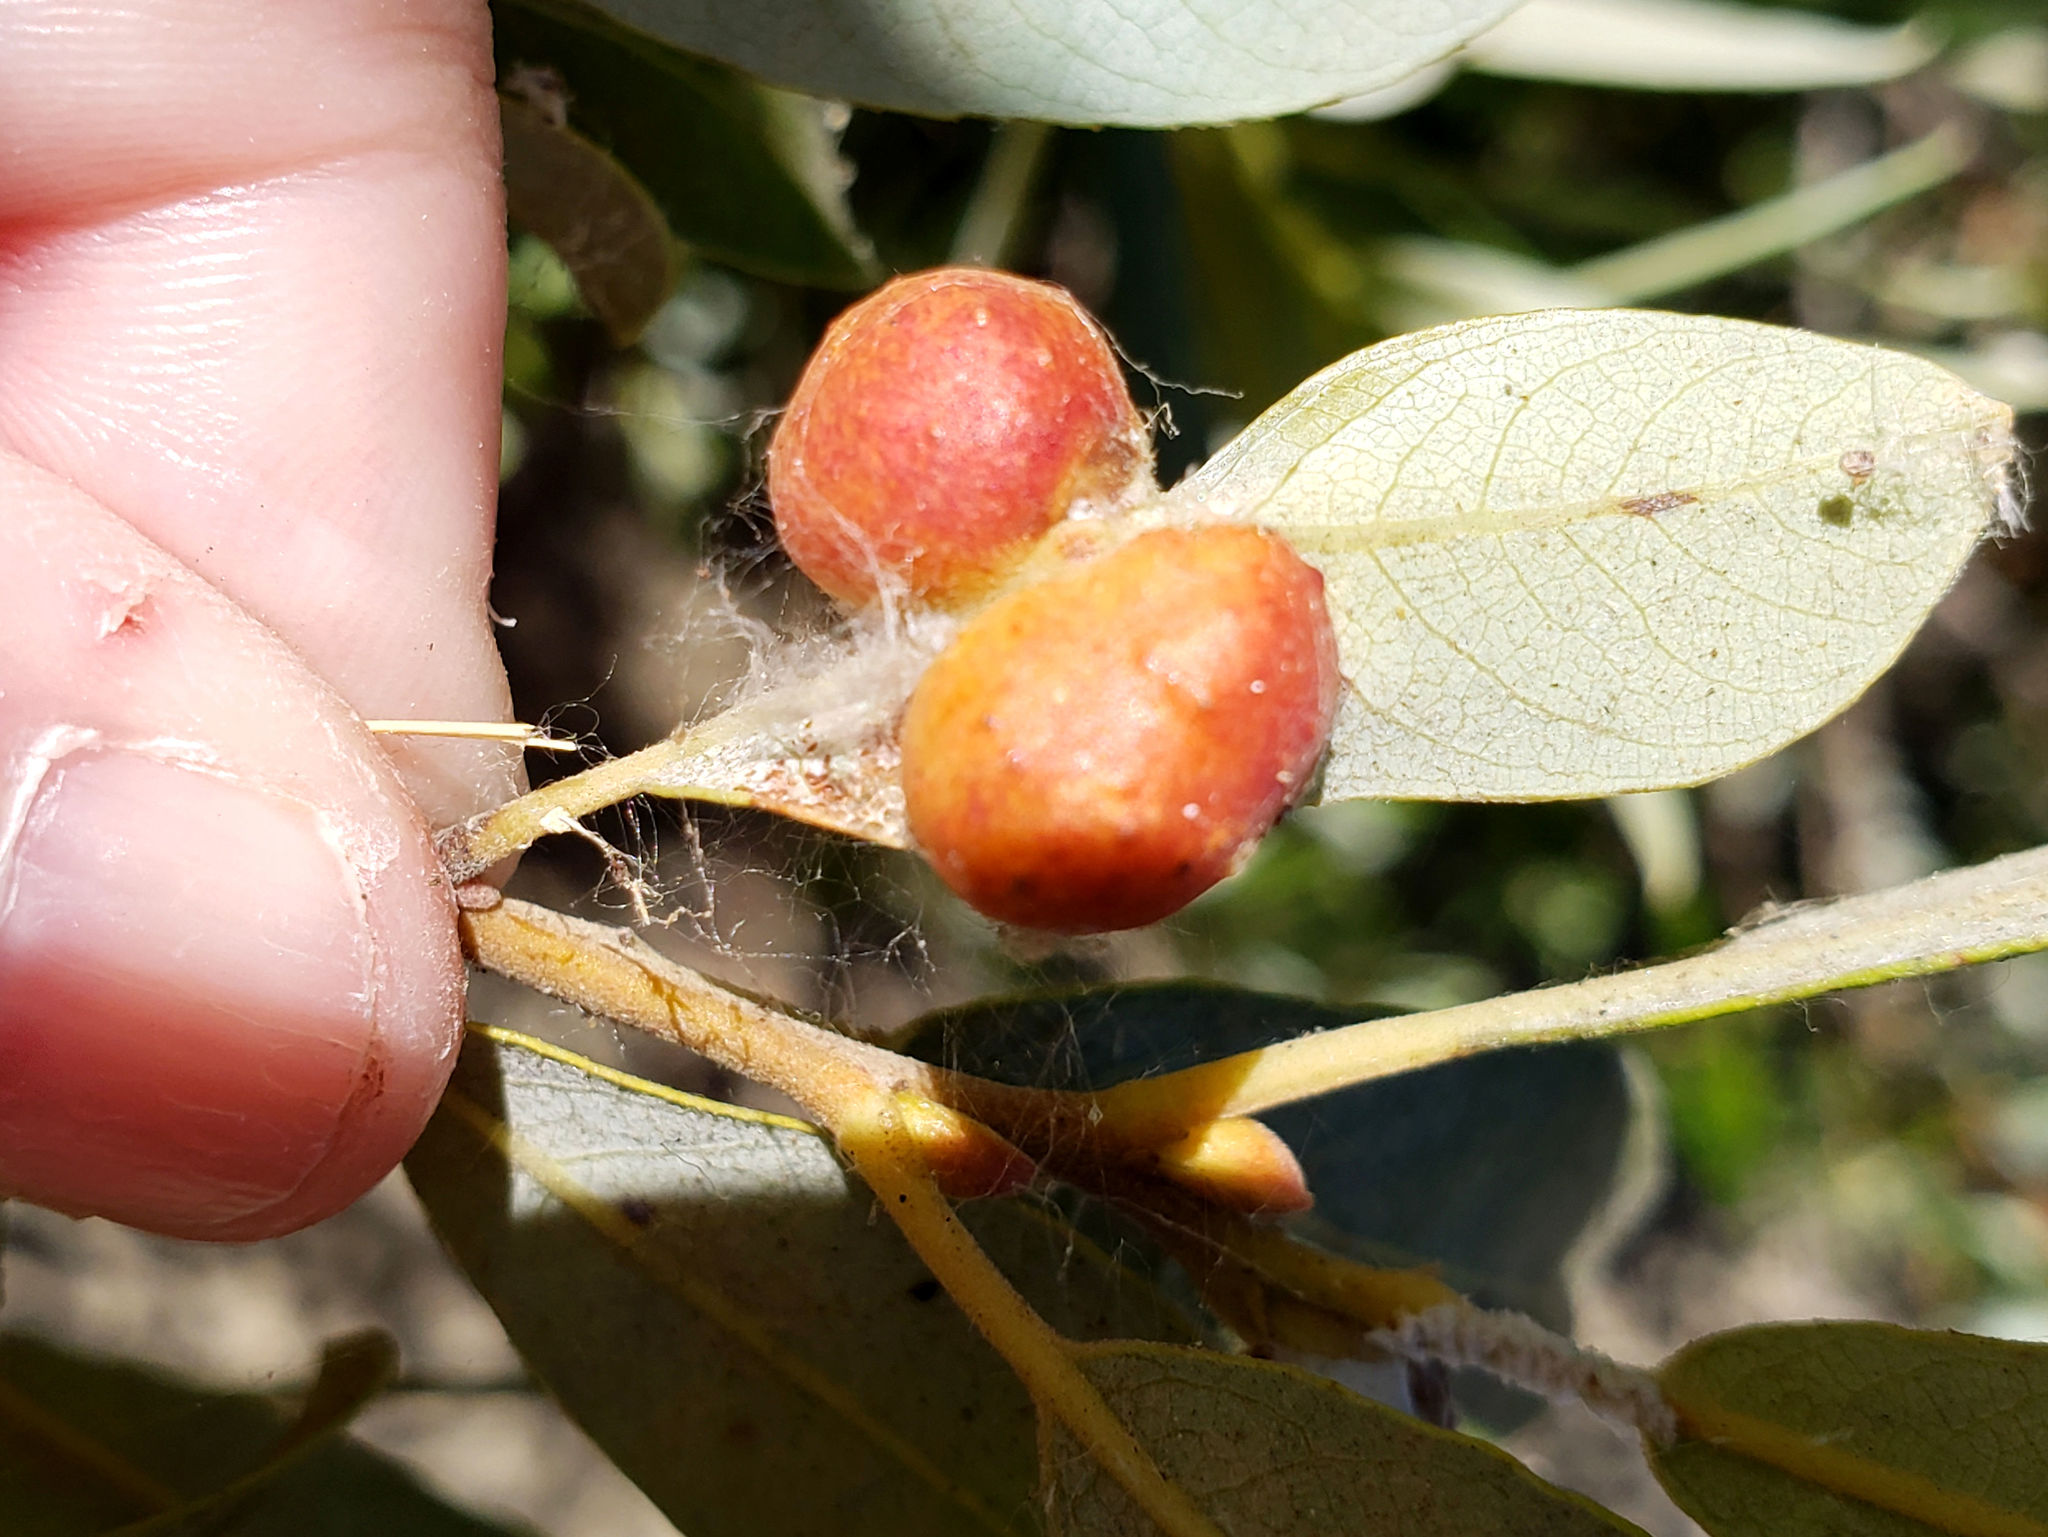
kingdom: Animalia
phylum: Arthropoda
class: Insecta
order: Hymenoptera
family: Tenthredinidae
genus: Euura
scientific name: Euura
